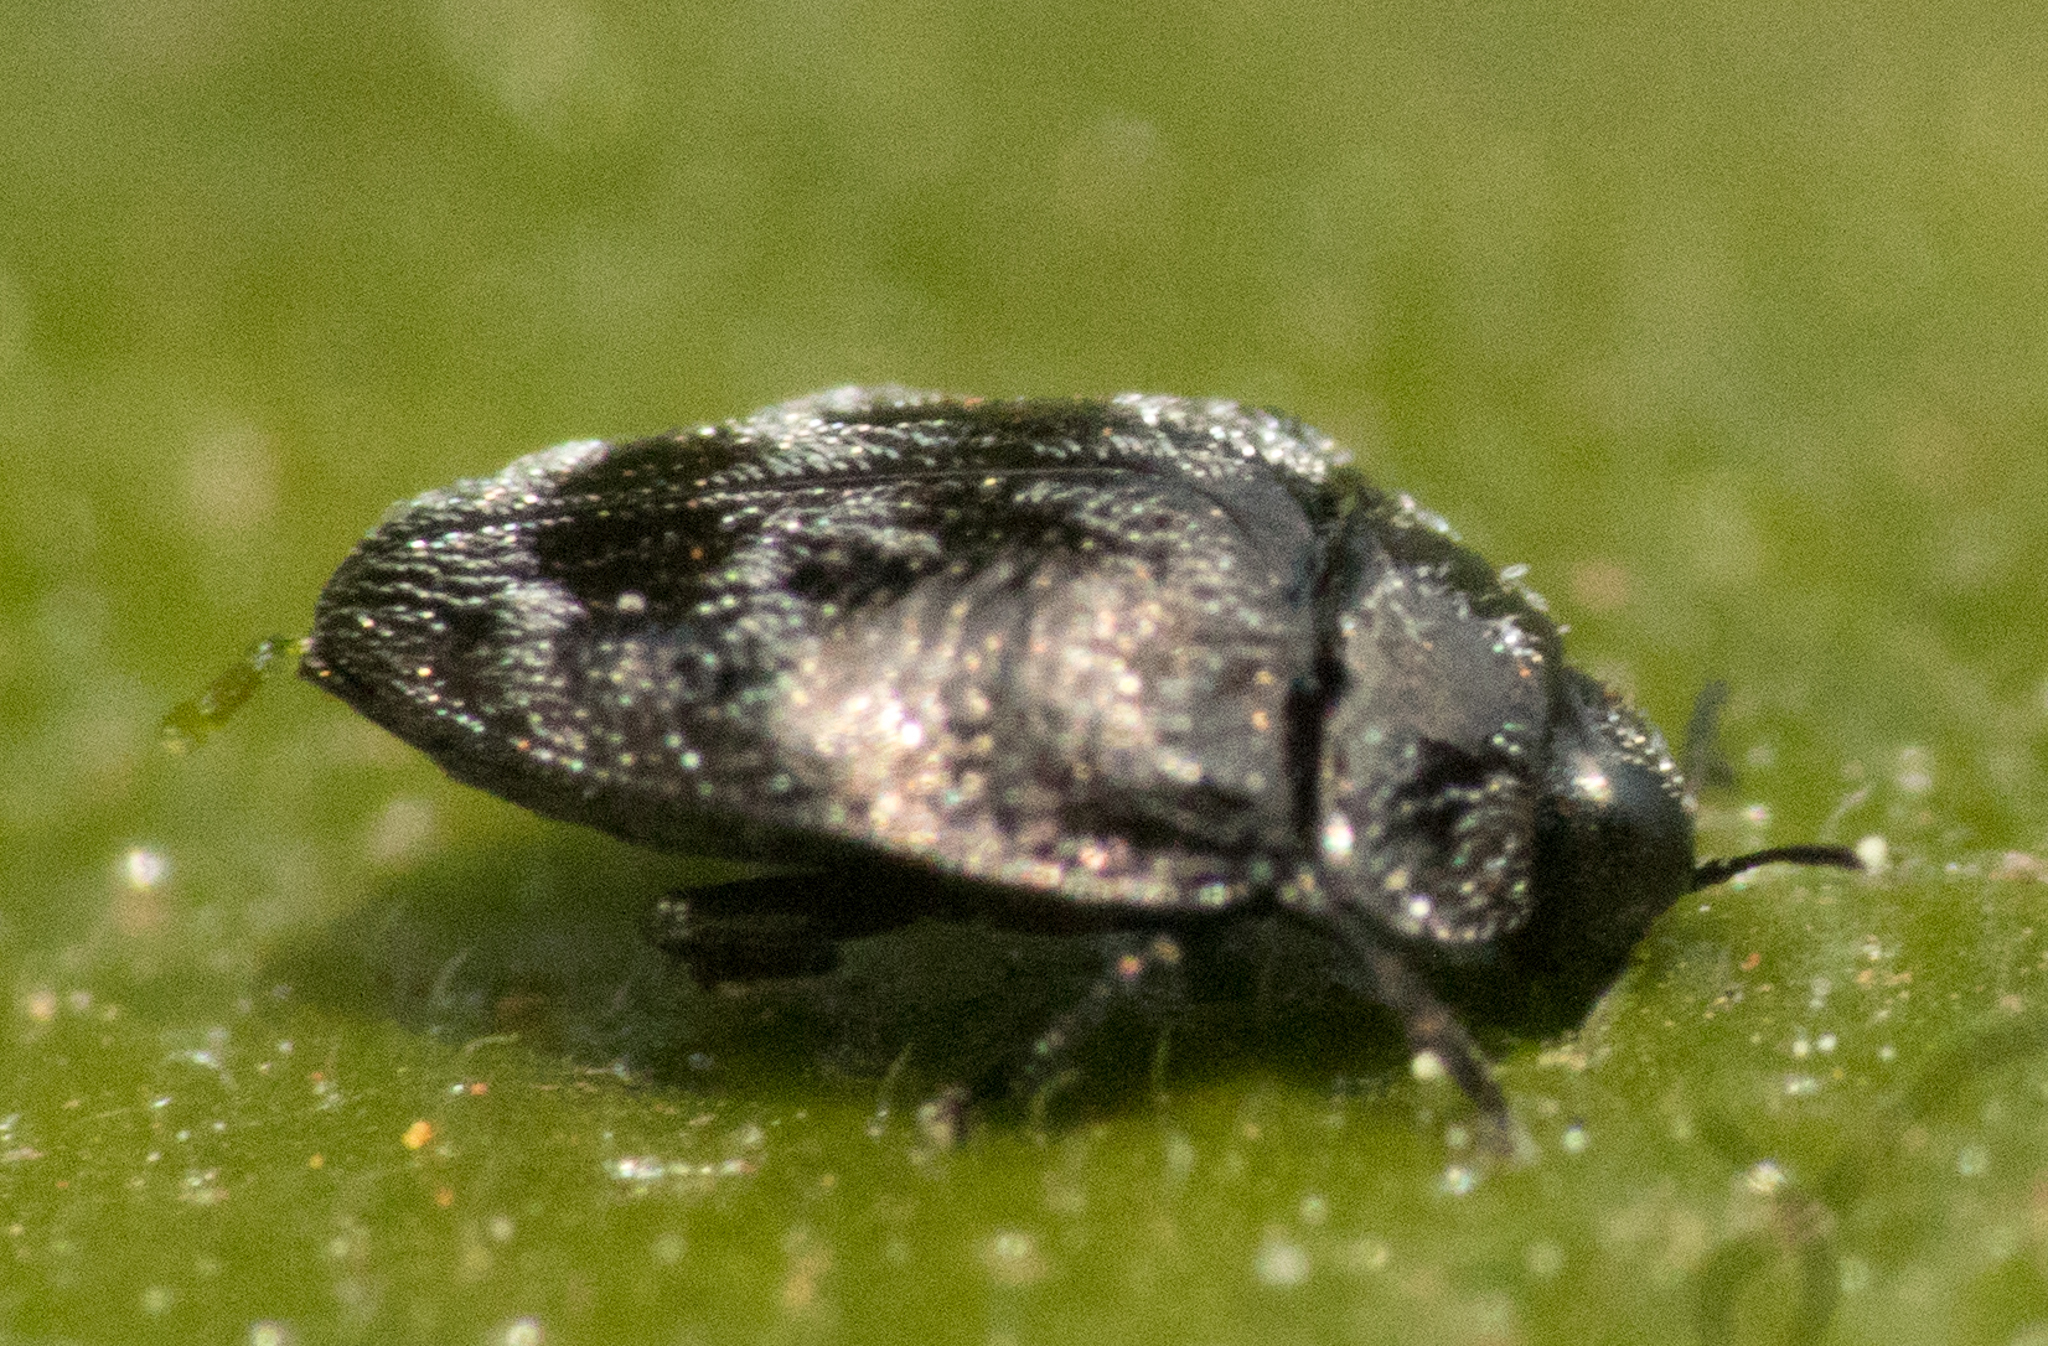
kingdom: Animalia
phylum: Arthropoda
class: Insecta
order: Coleoptera
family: Buprestidae
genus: Euhylaeogena
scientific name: Euhylaeogena
